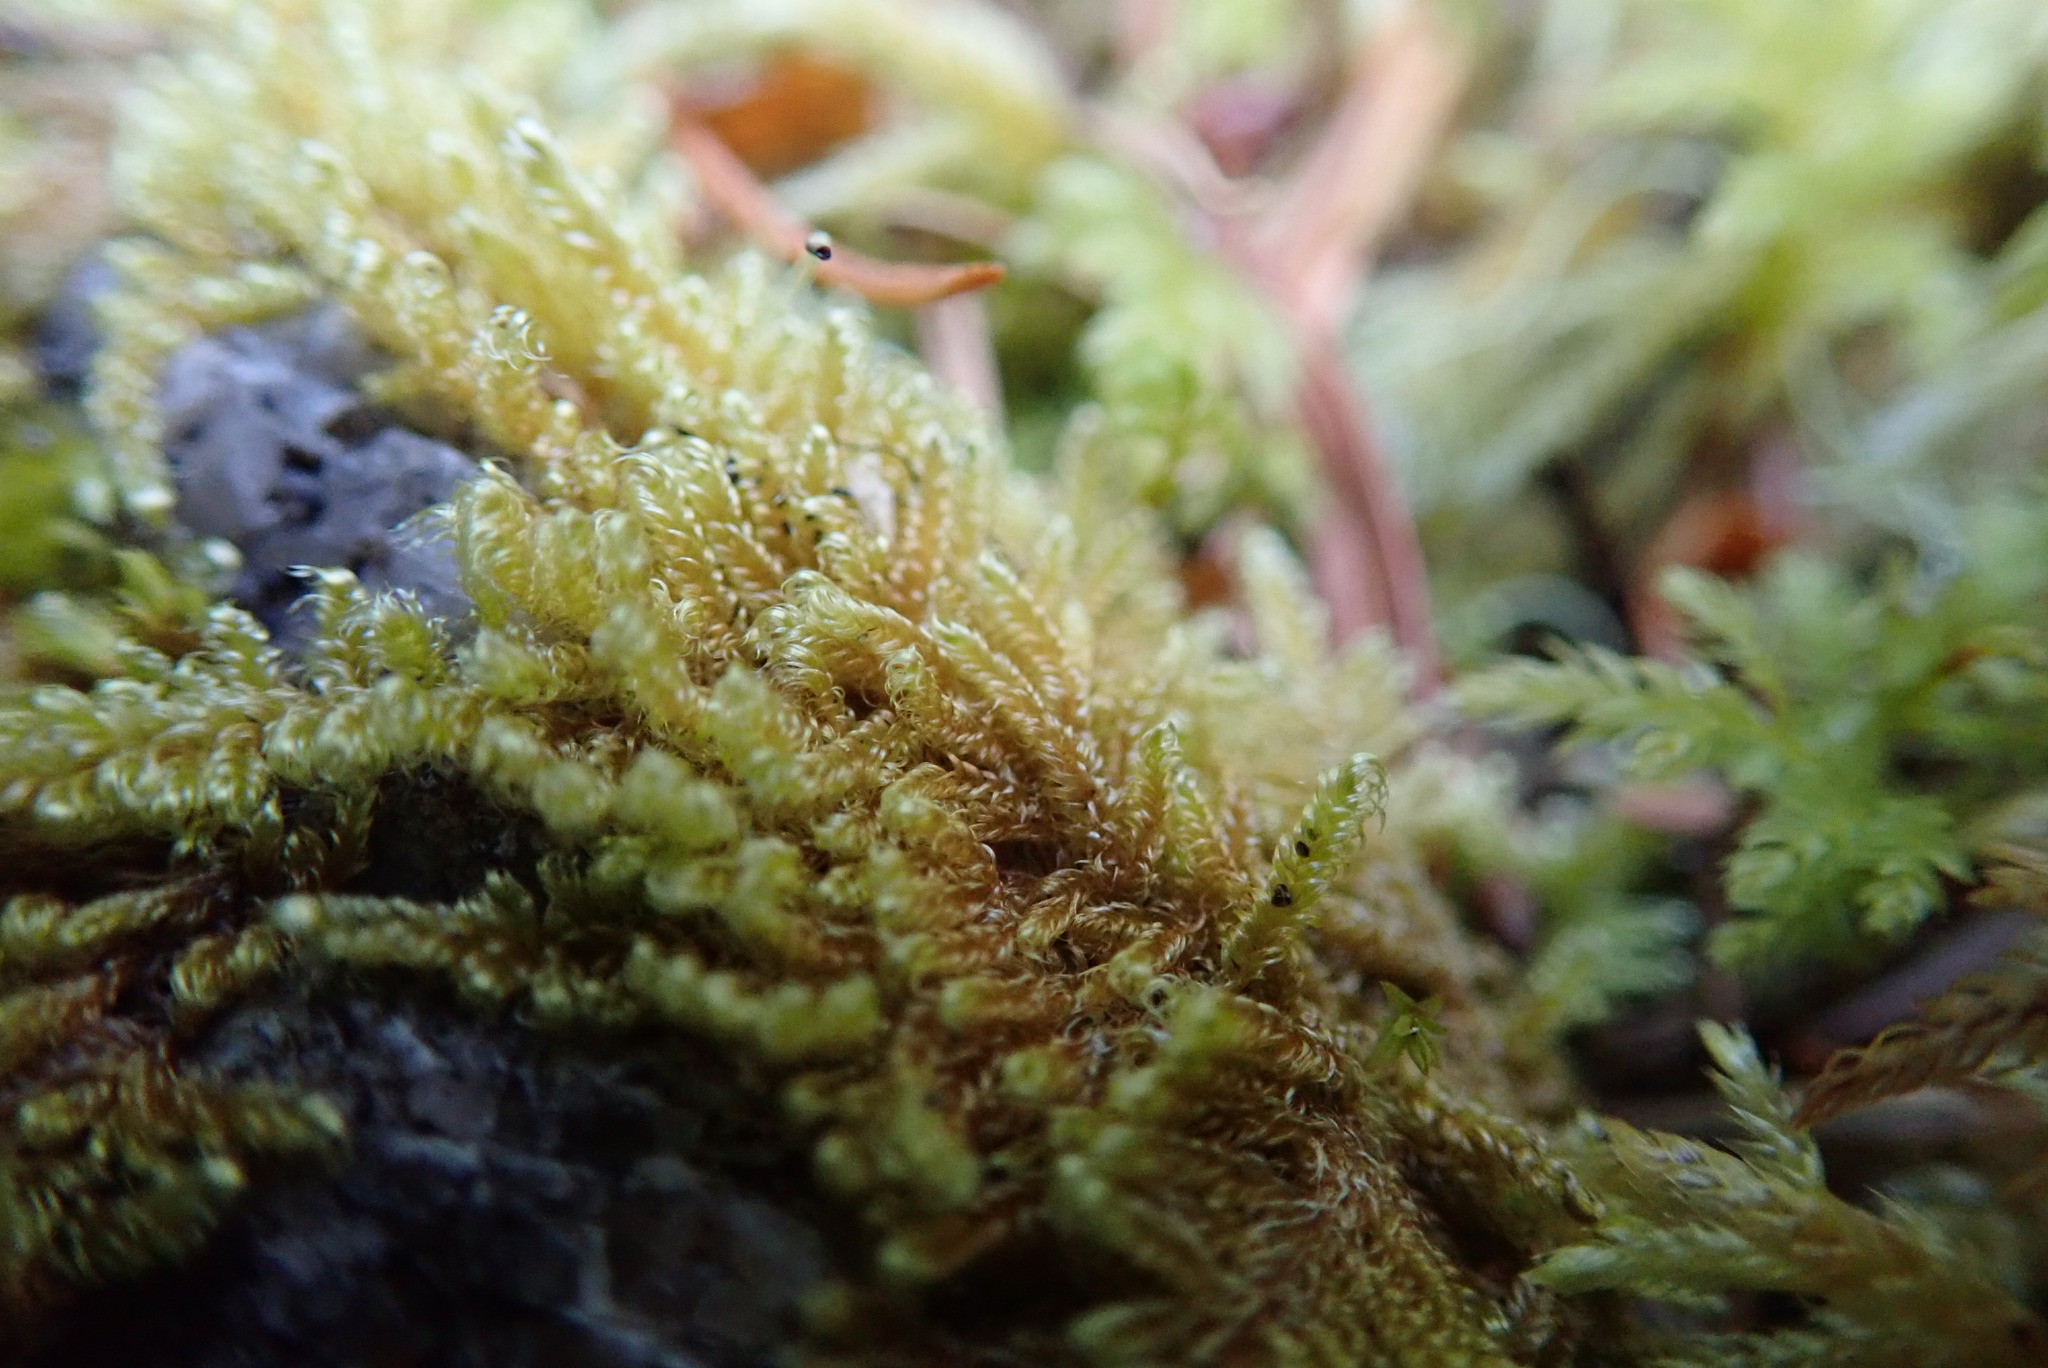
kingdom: Plantae
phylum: Bryophyta
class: Bryopsida
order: Hypnales
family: Stereodontaceae
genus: Stereodon
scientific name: Stereodon subimponens
